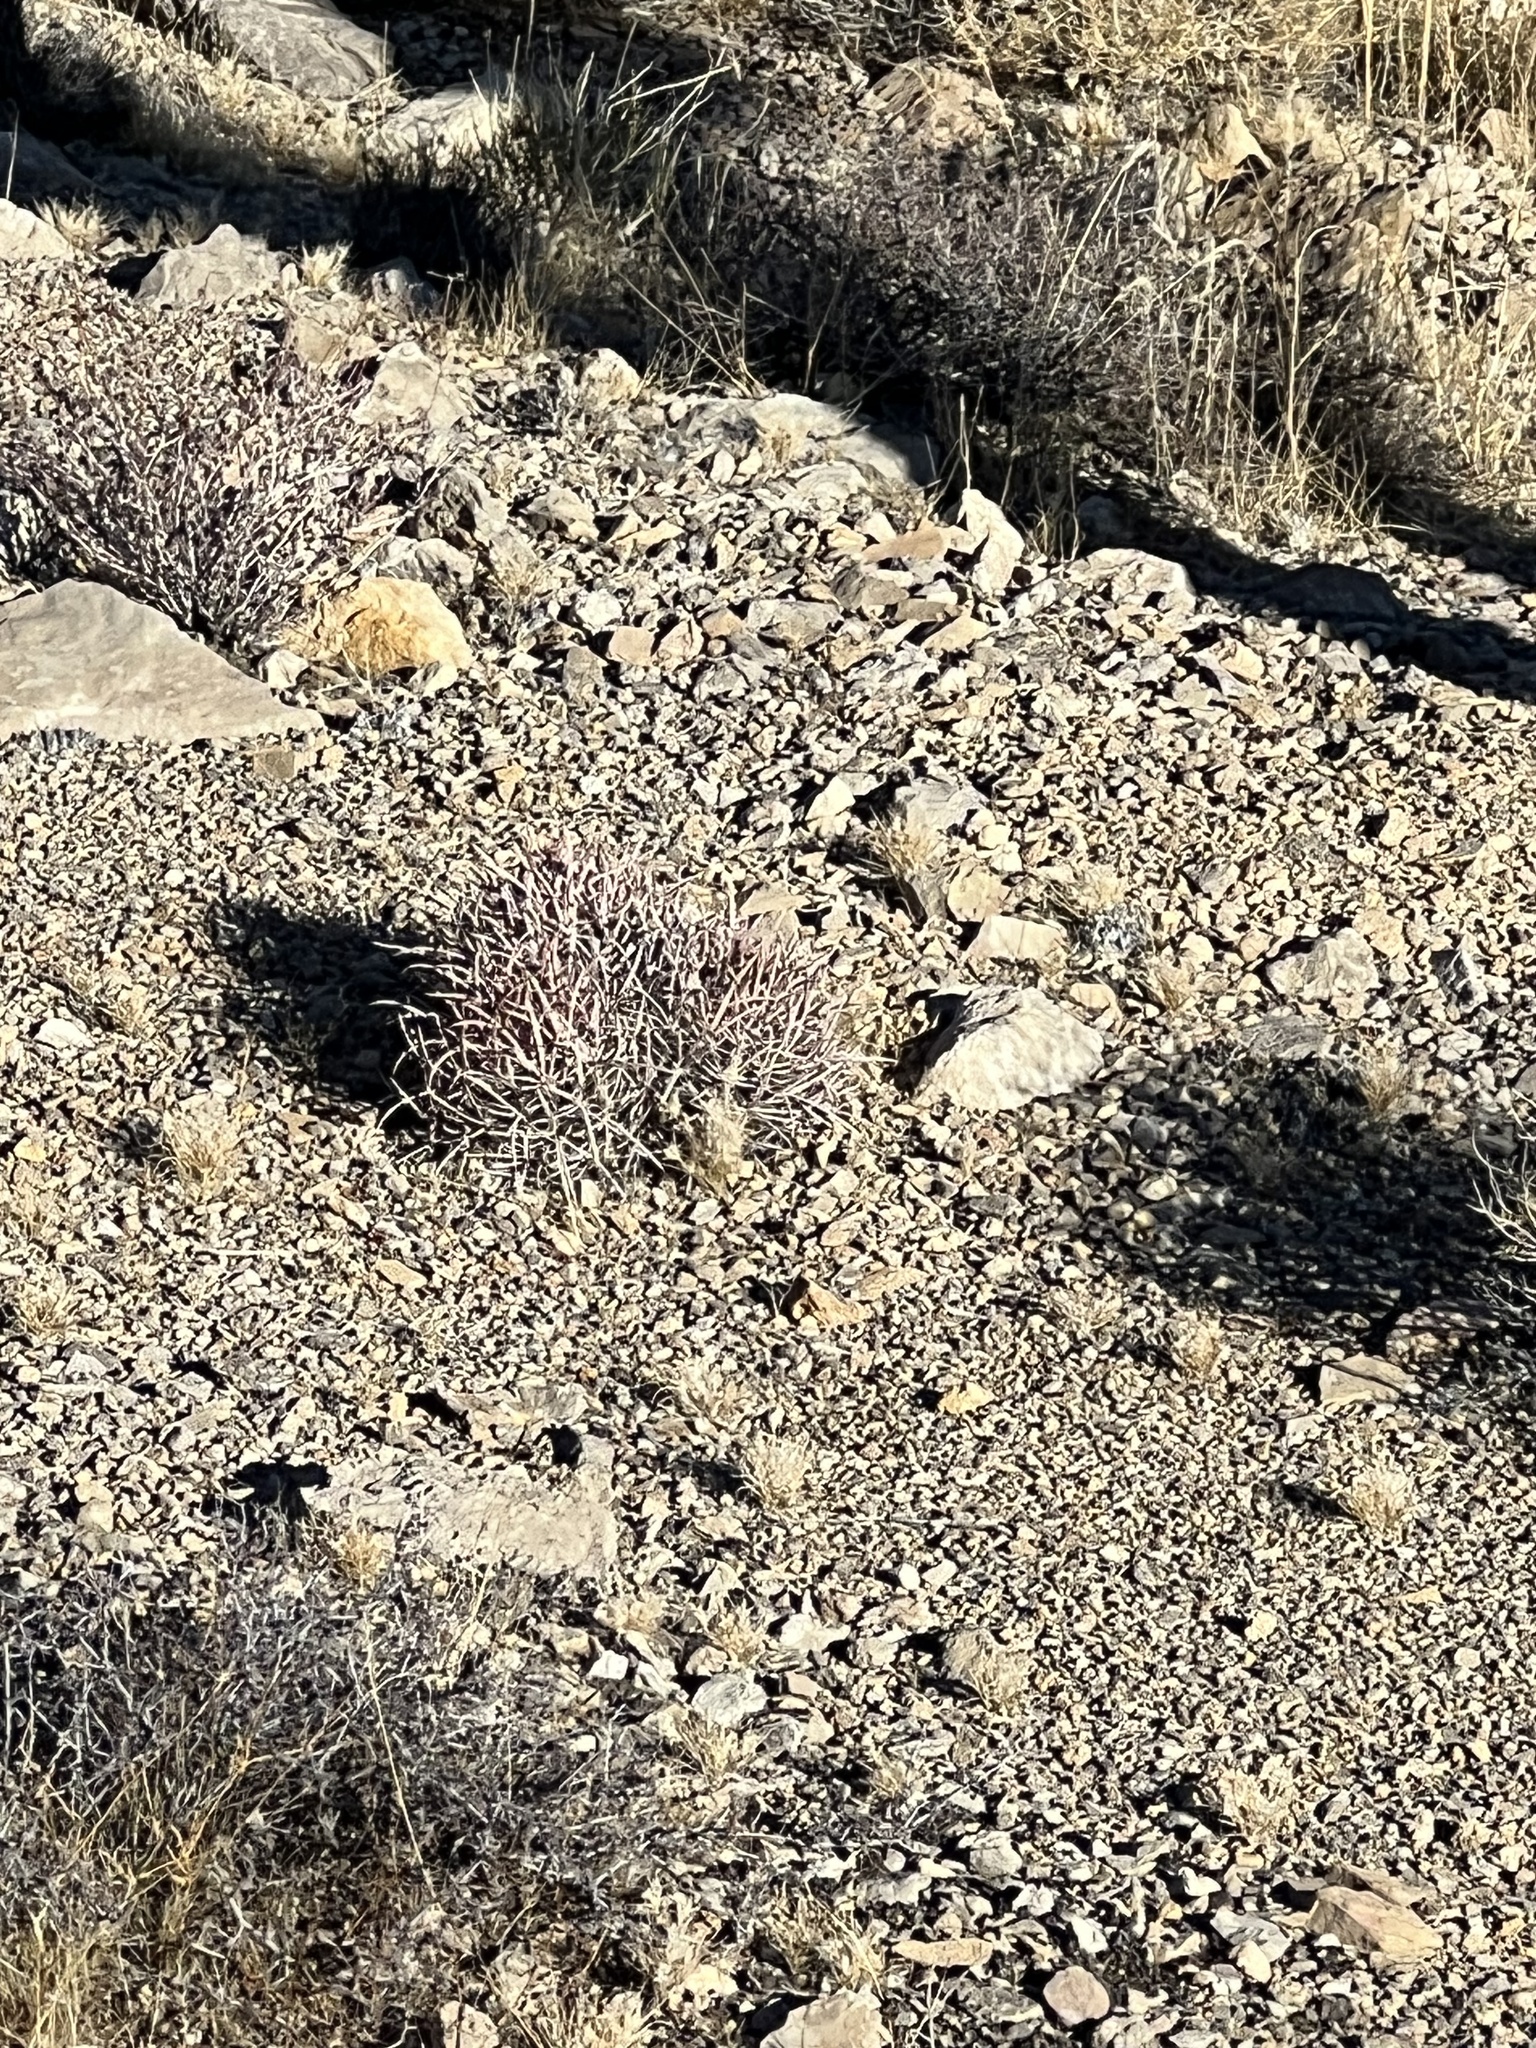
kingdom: Plantae
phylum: Tracheophyta
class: Magnoliopsida
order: Caryophyllales
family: Cactaceae
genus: Echinocactus
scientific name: Echinocactus polycephalus
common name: Cottontop cactus
